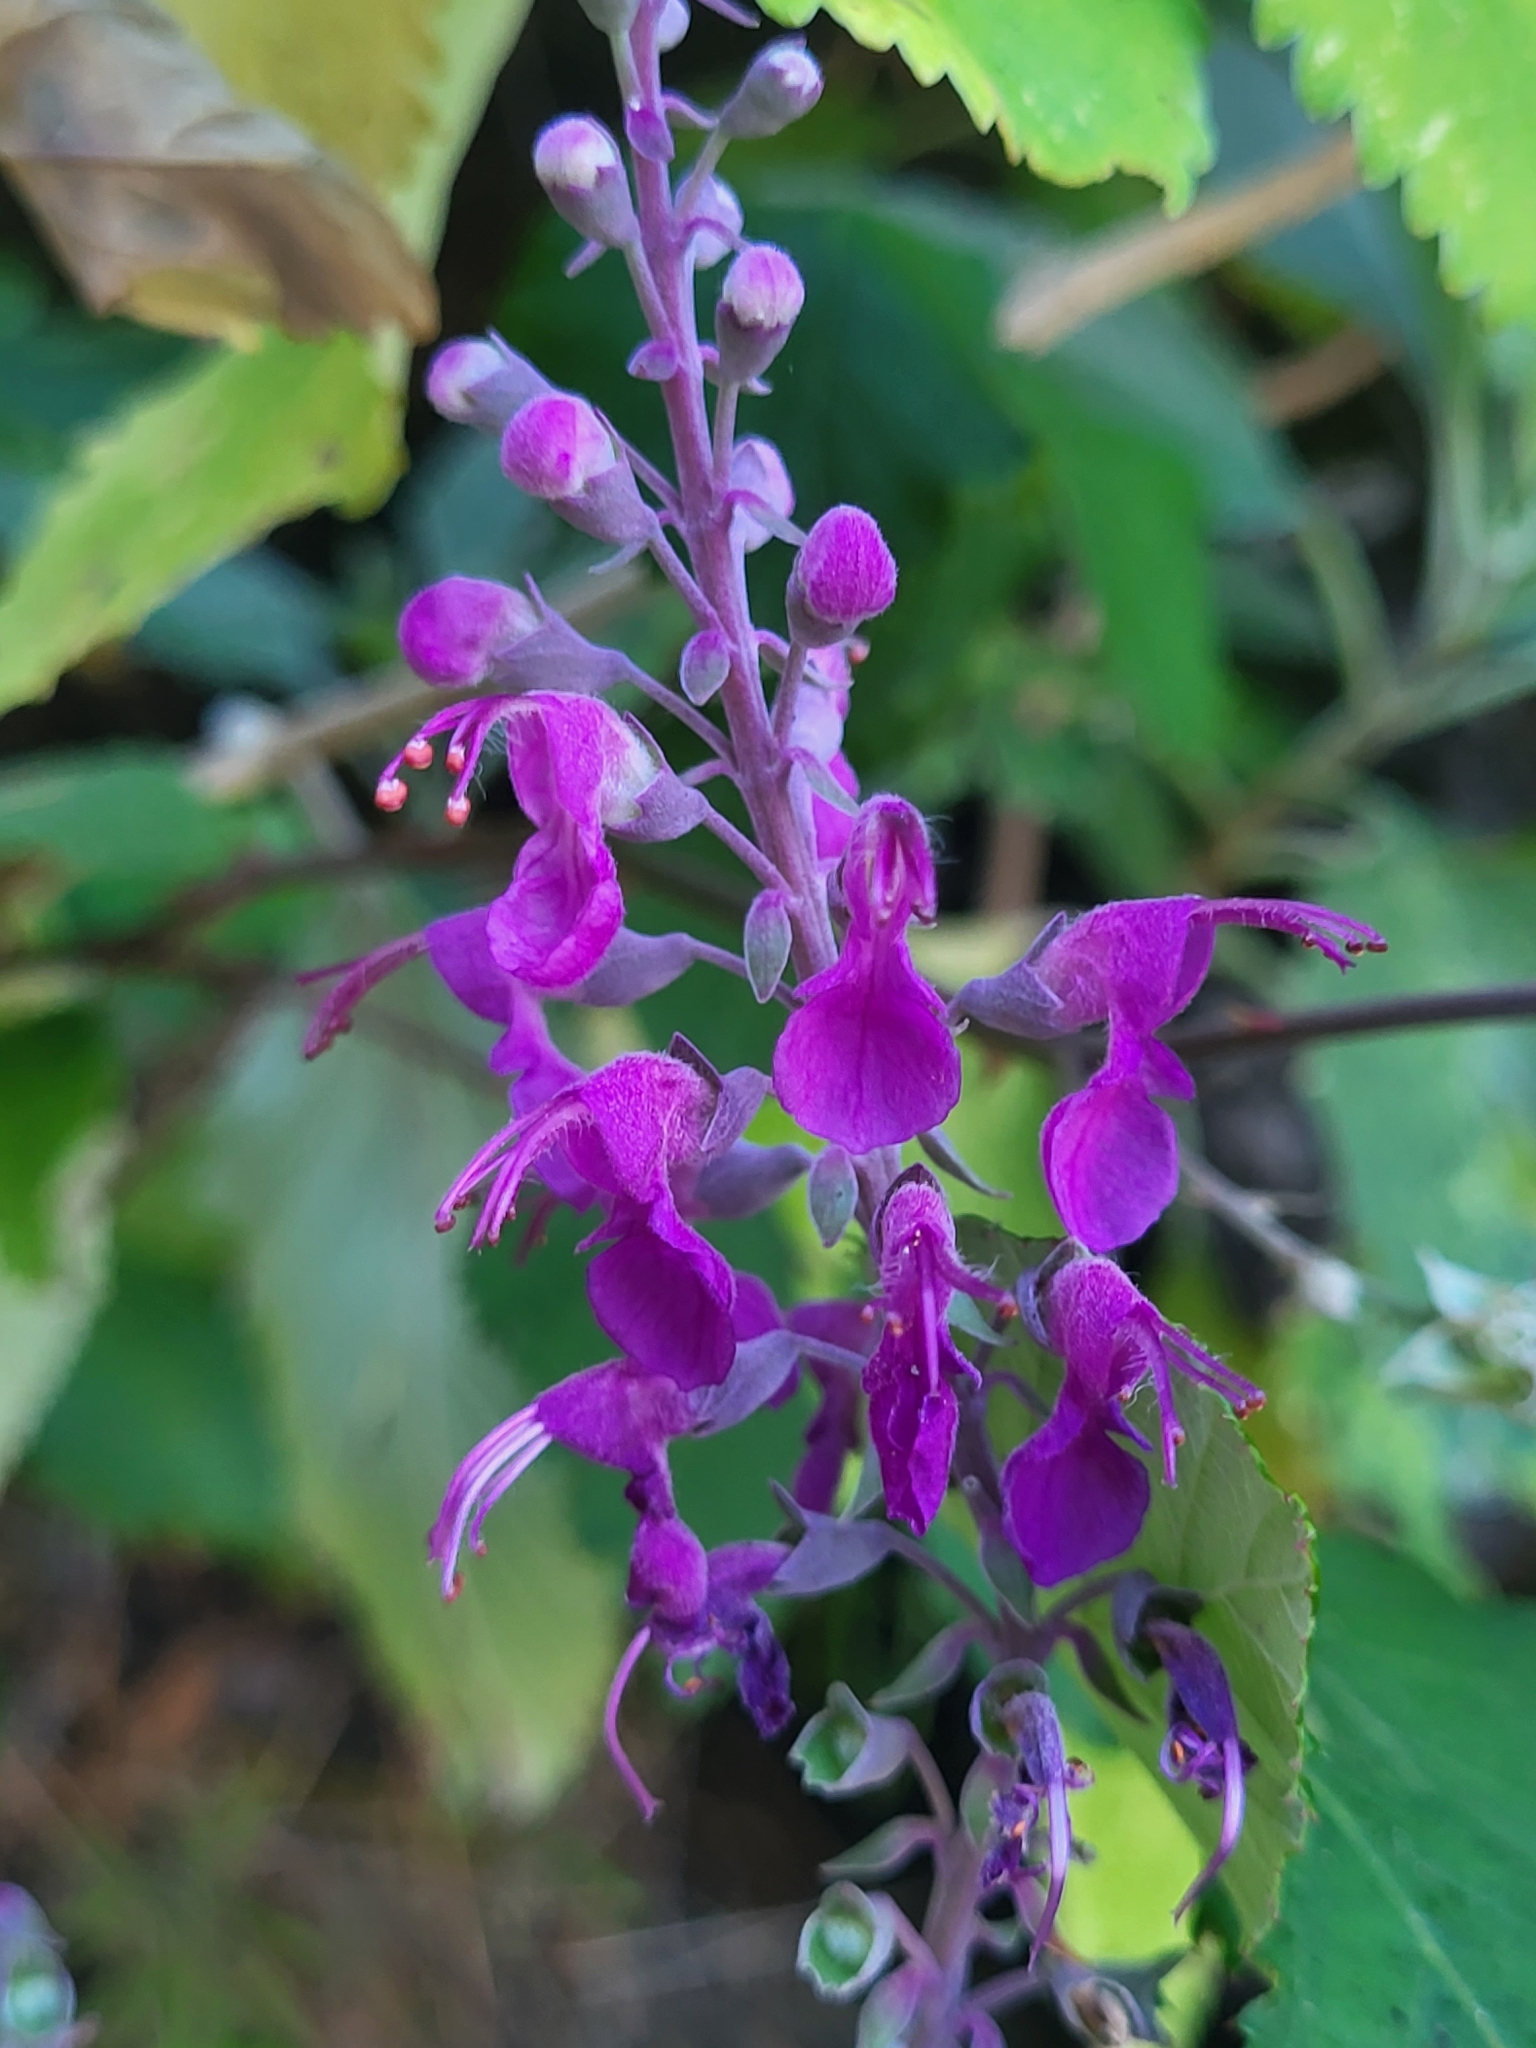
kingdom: Plantae
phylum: Tracheophyta
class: Magnoliopsida
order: Lamiales
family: Lamiaceae
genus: Teucrium
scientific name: Teucrium betonicum
